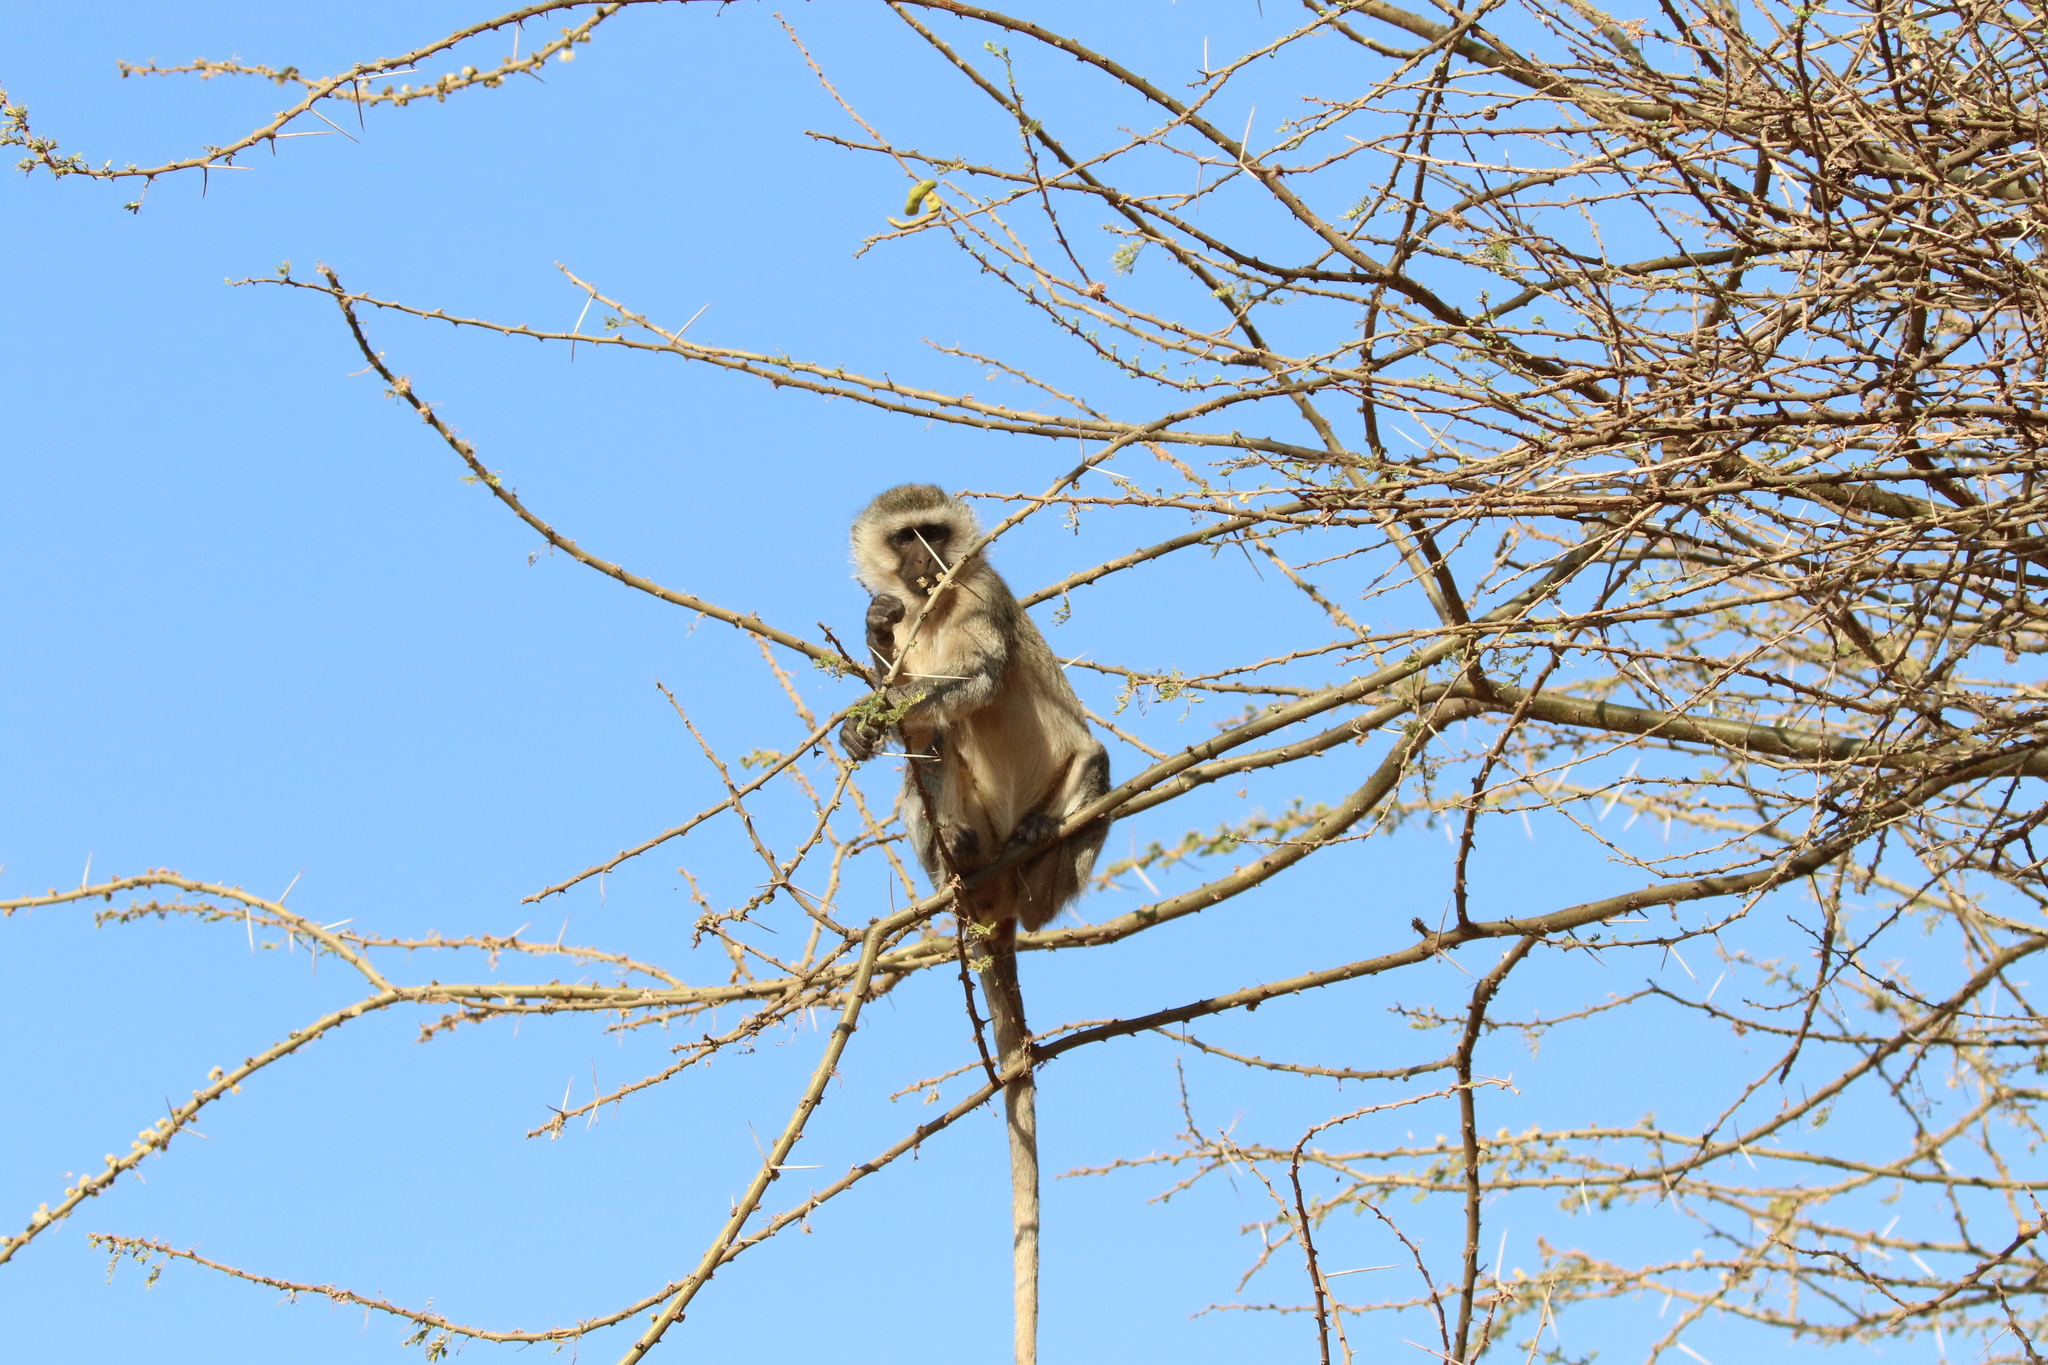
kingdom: Animalia
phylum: Chordata
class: Mammalia
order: Primates
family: Cercopithecidae
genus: Chlorocebus
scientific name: Chlorocebus pygerythrus
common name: Vervet monkey
